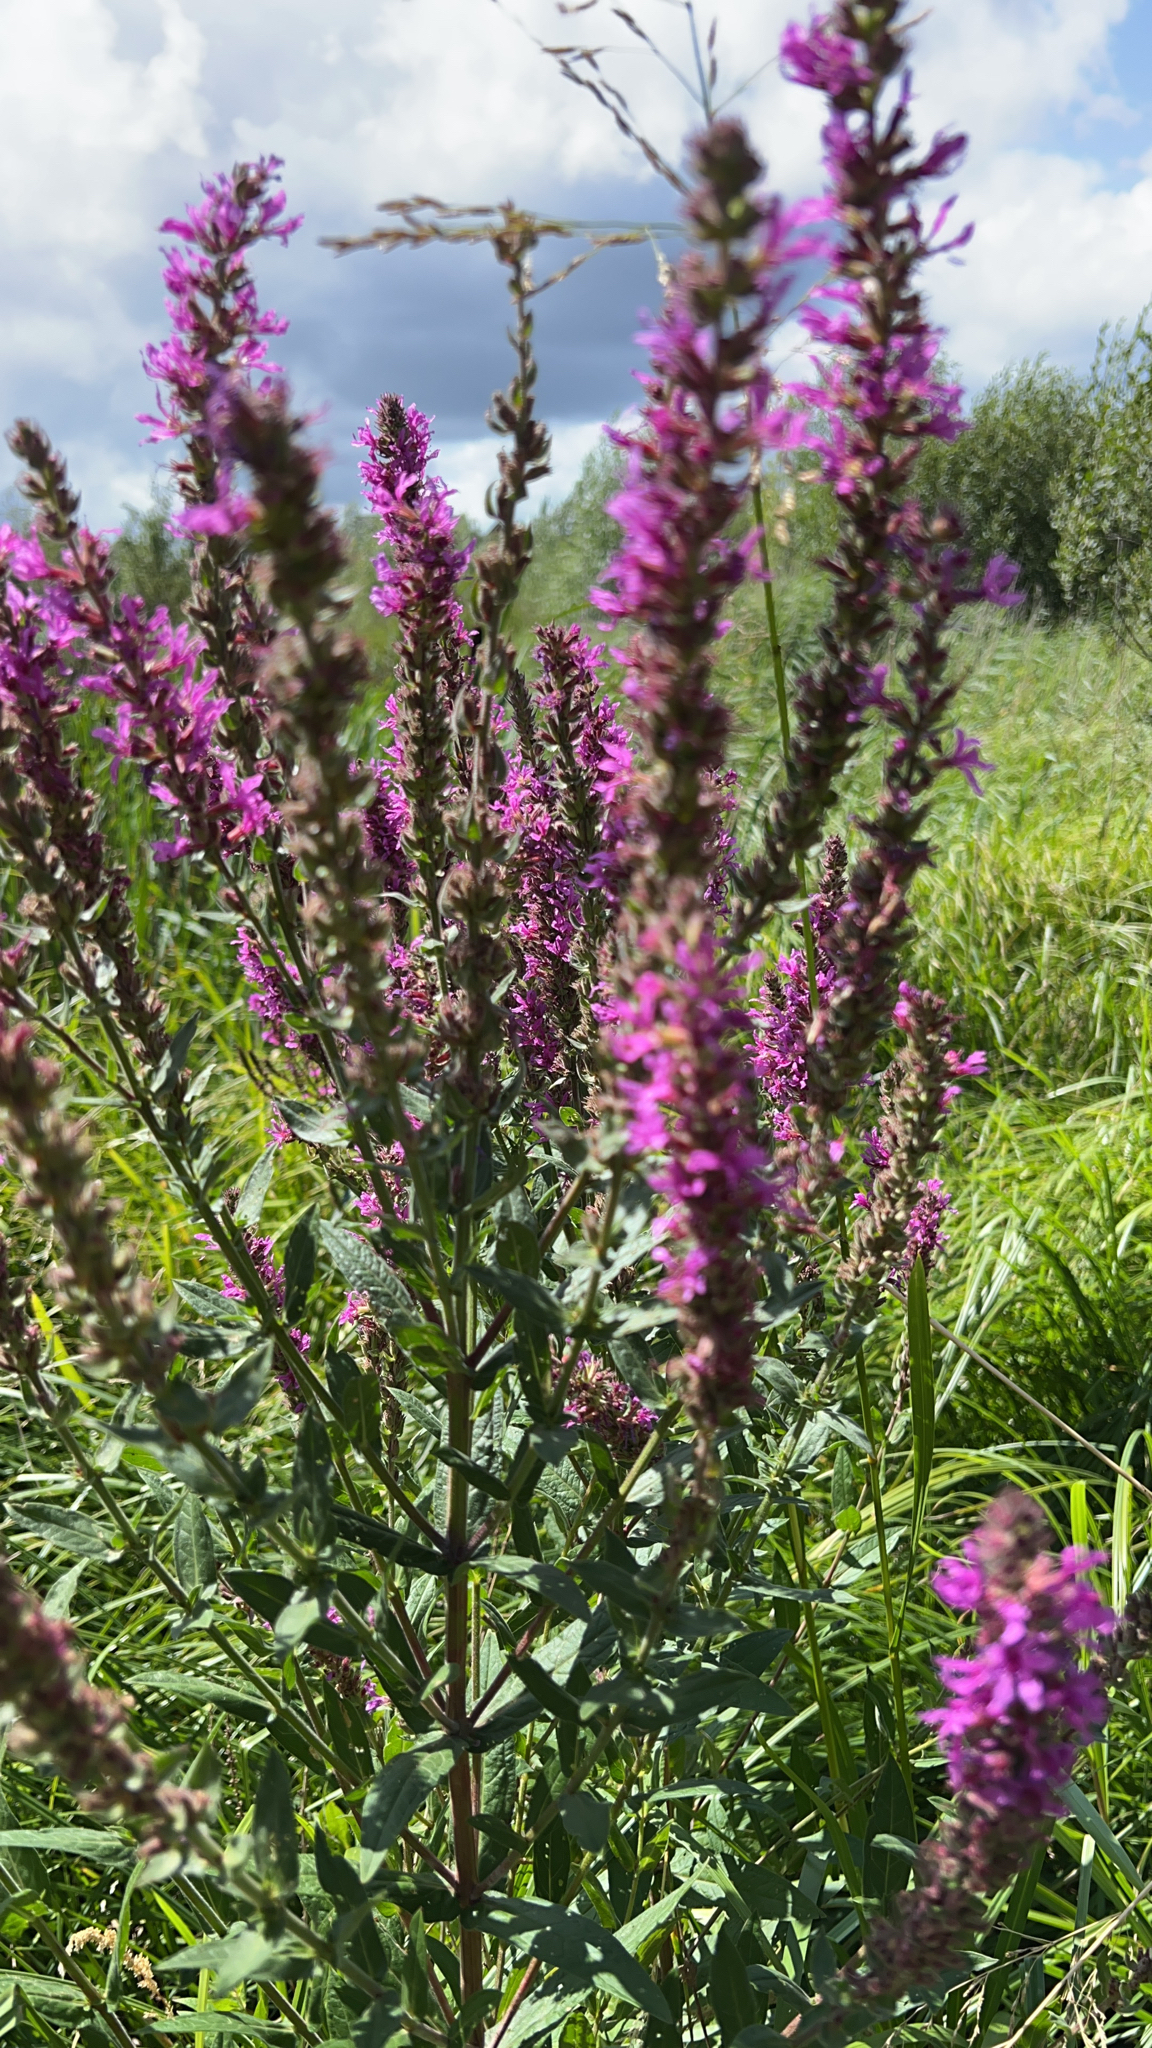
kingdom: Plantae
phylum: Tracheophyta
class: Magnoliopsida
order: Myrtales
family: Lythraceae
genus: Lythrum
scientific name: Lythrum salicaria
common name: Purple loosestrife
